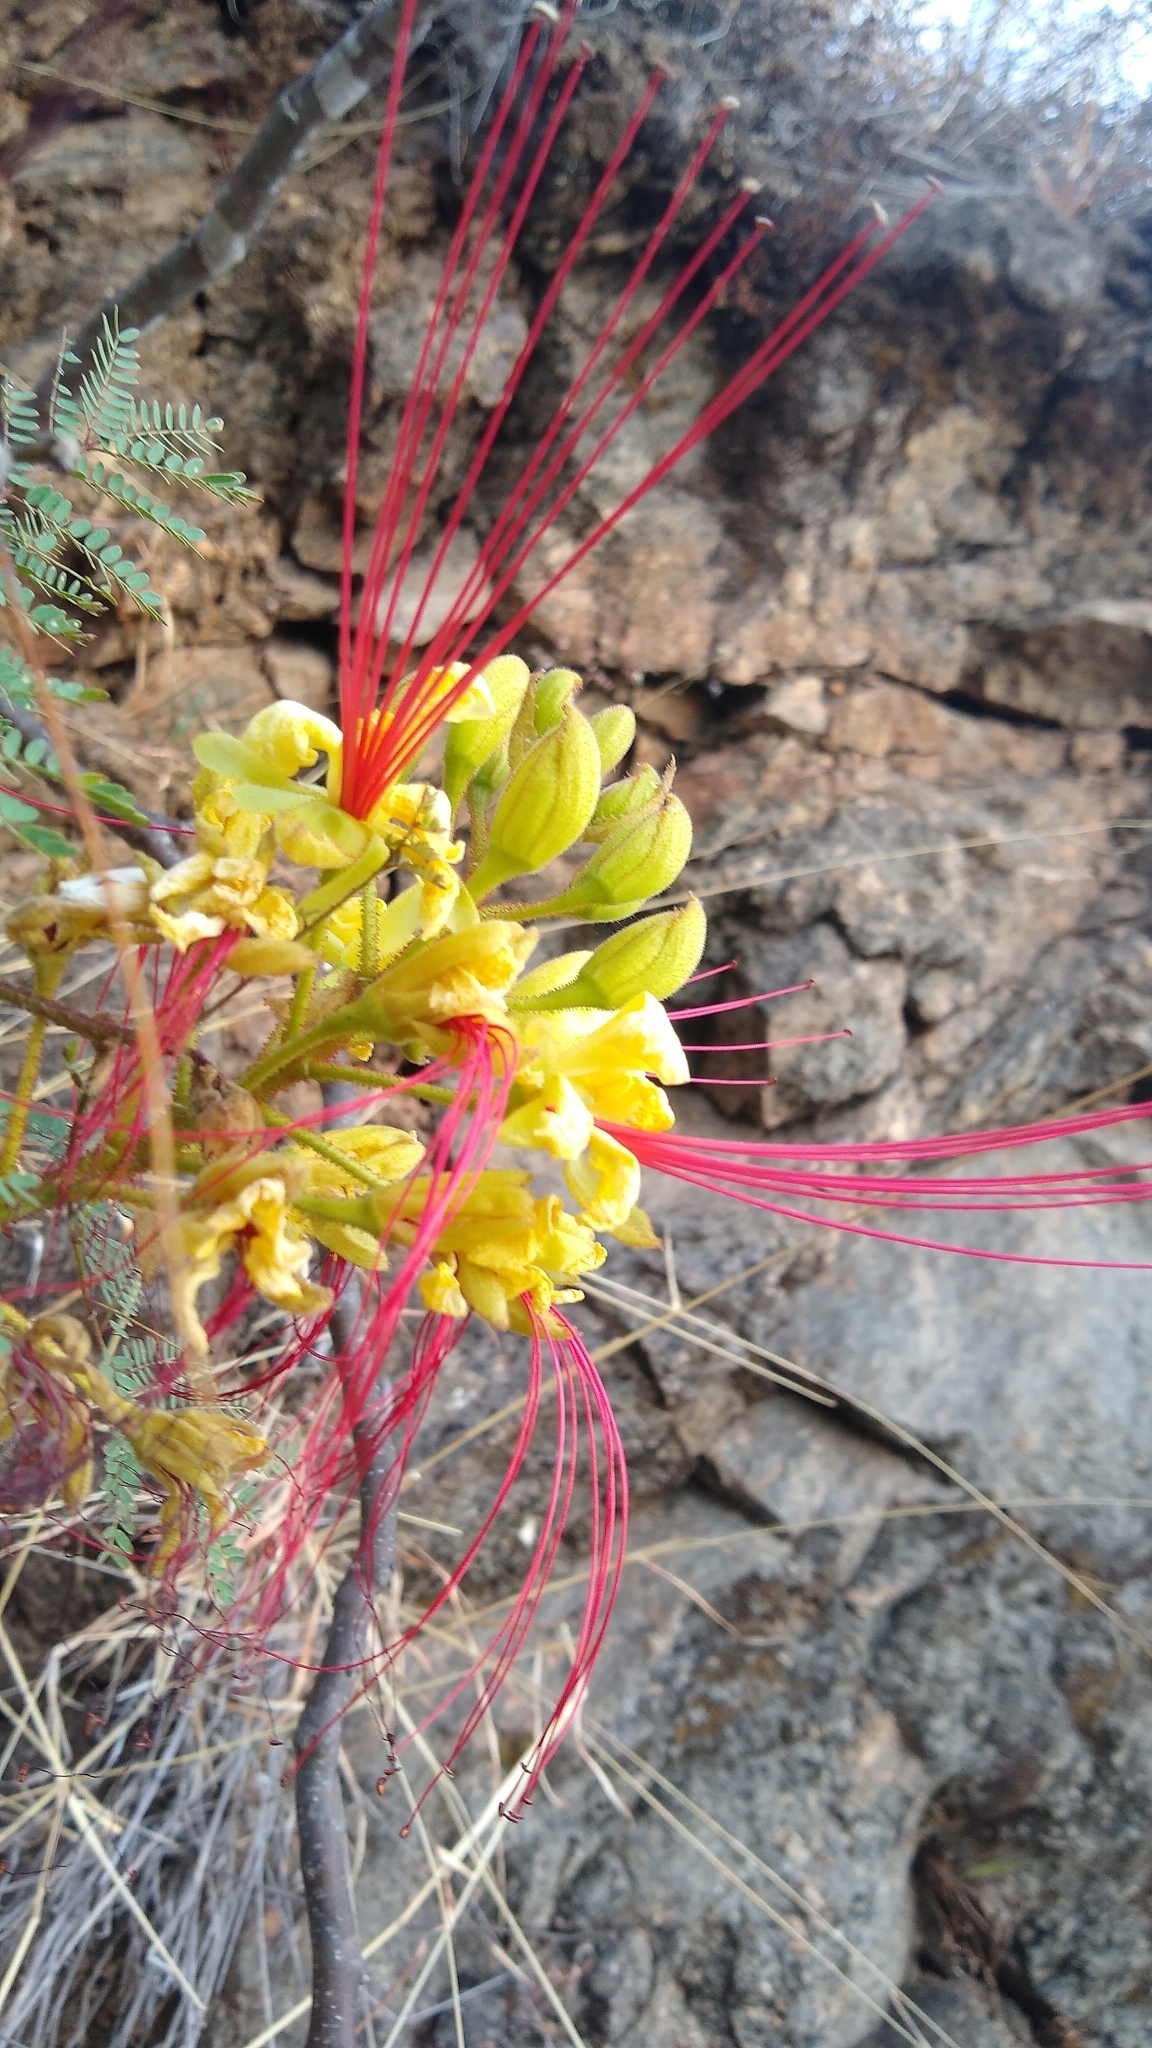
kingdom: Plantae
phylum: Tracheophyta
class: Magnoliopsida
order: Fabales
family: Fabaceae
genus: Erythrostemon
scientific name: Erythrostemon gilliesii
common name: Bird-of-paradise shrub
